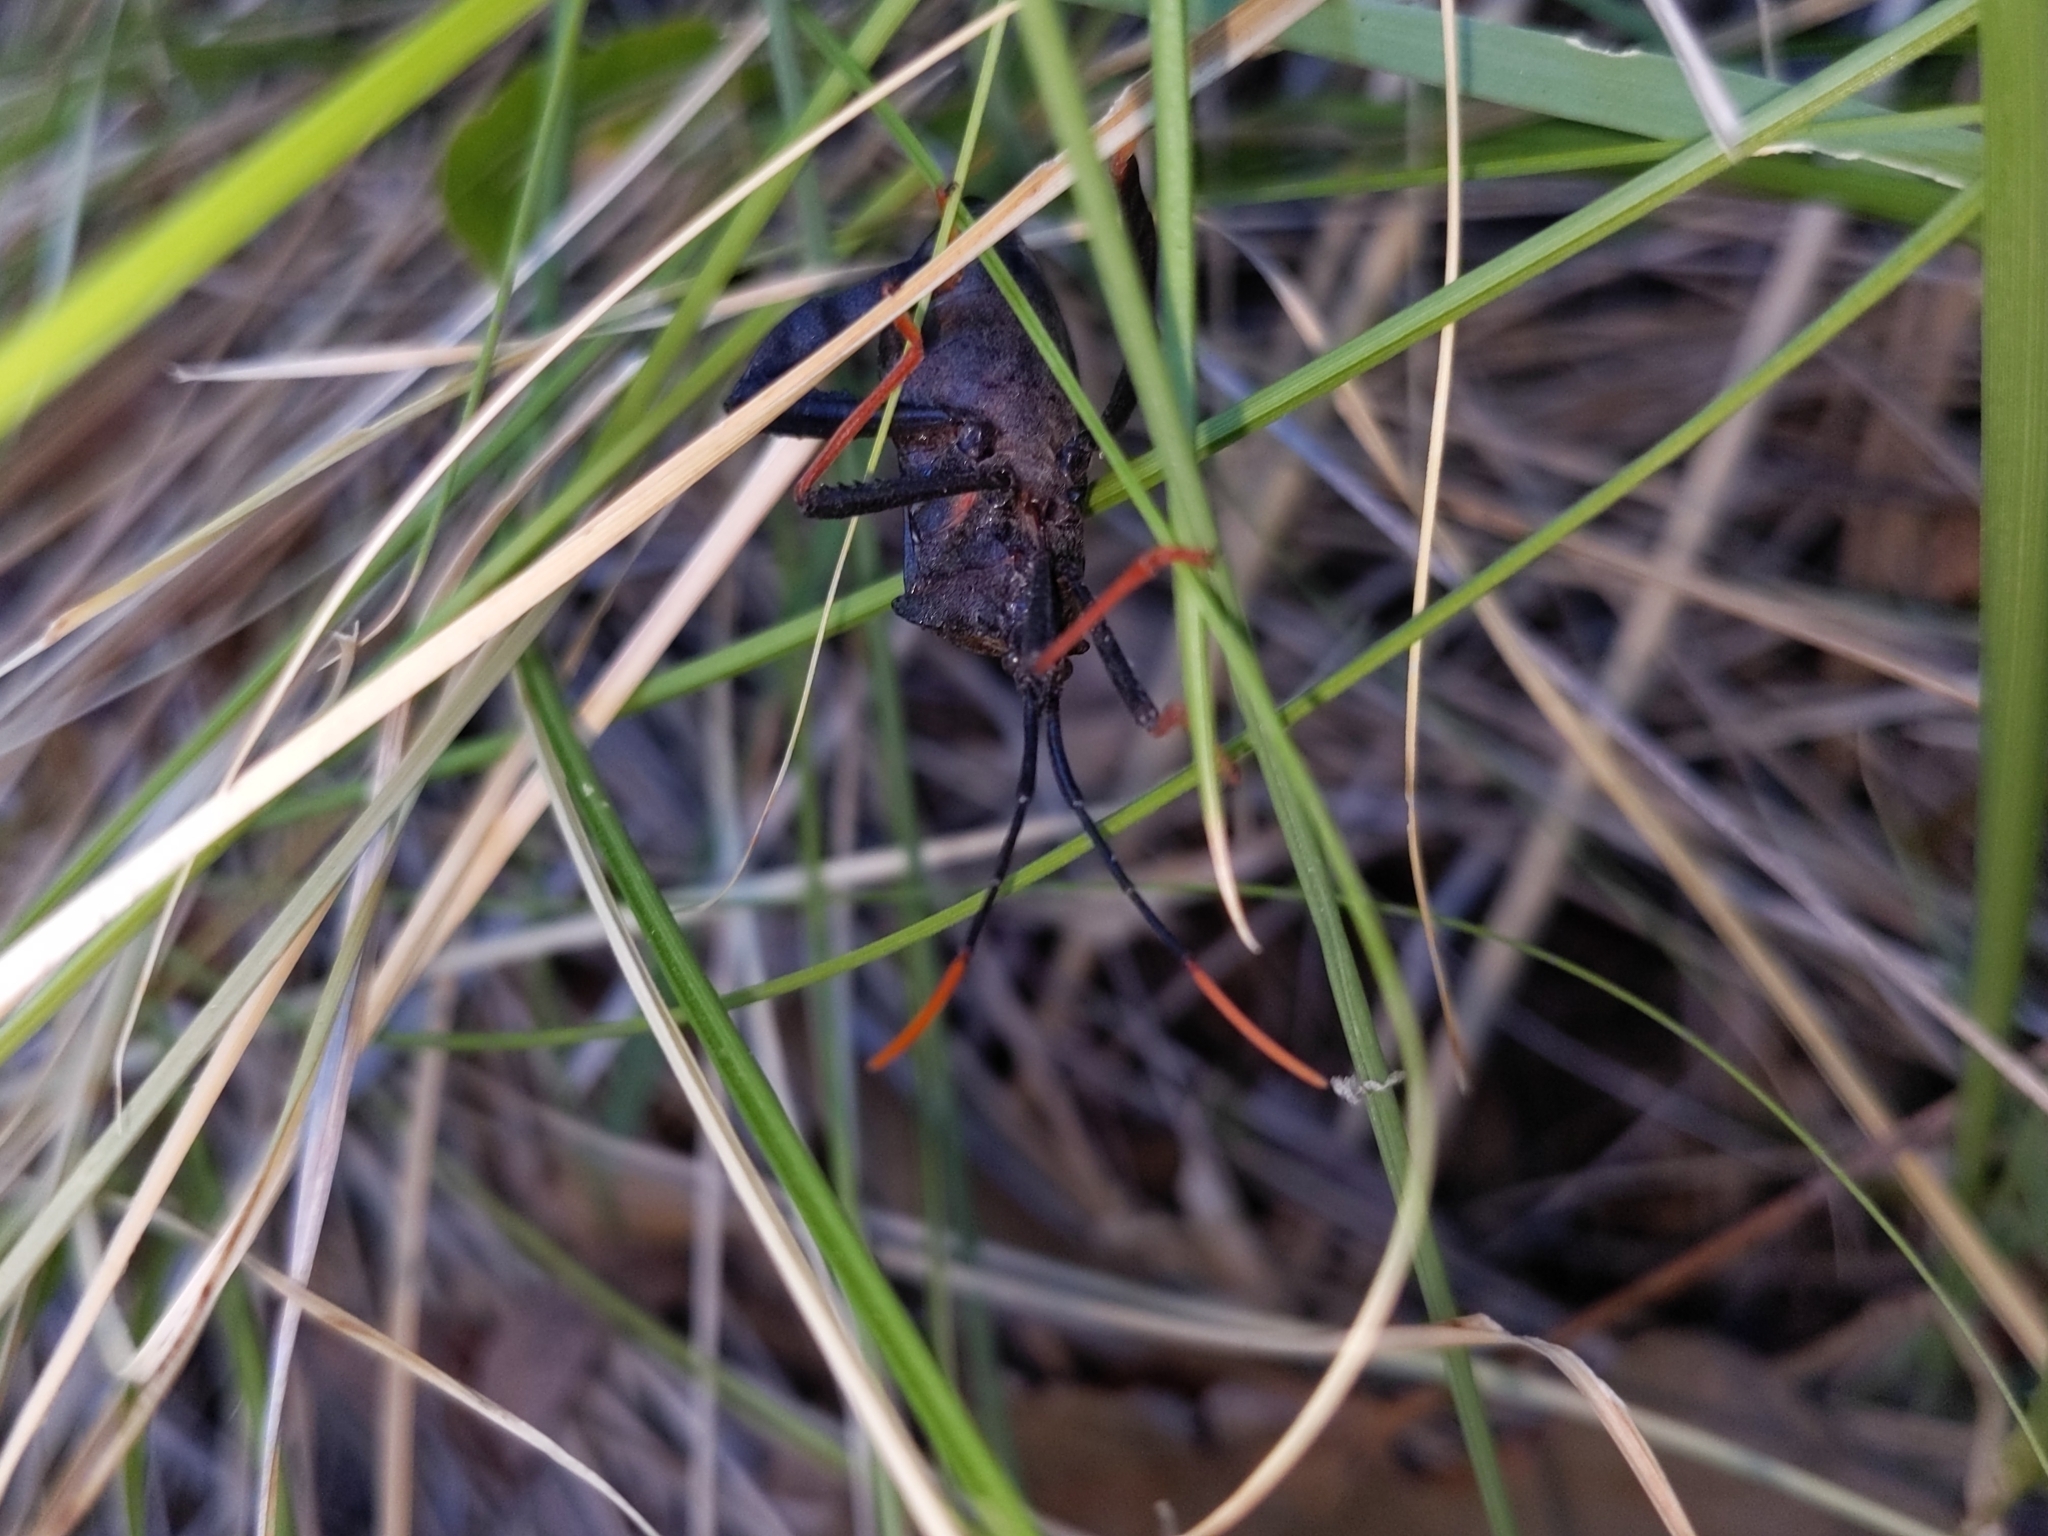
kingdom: Animalia
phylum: Arthropoda
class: Insecta
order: Hemiptera
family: Coreidae
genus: Acanthocephala
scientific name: Acanthocephala thomasi
